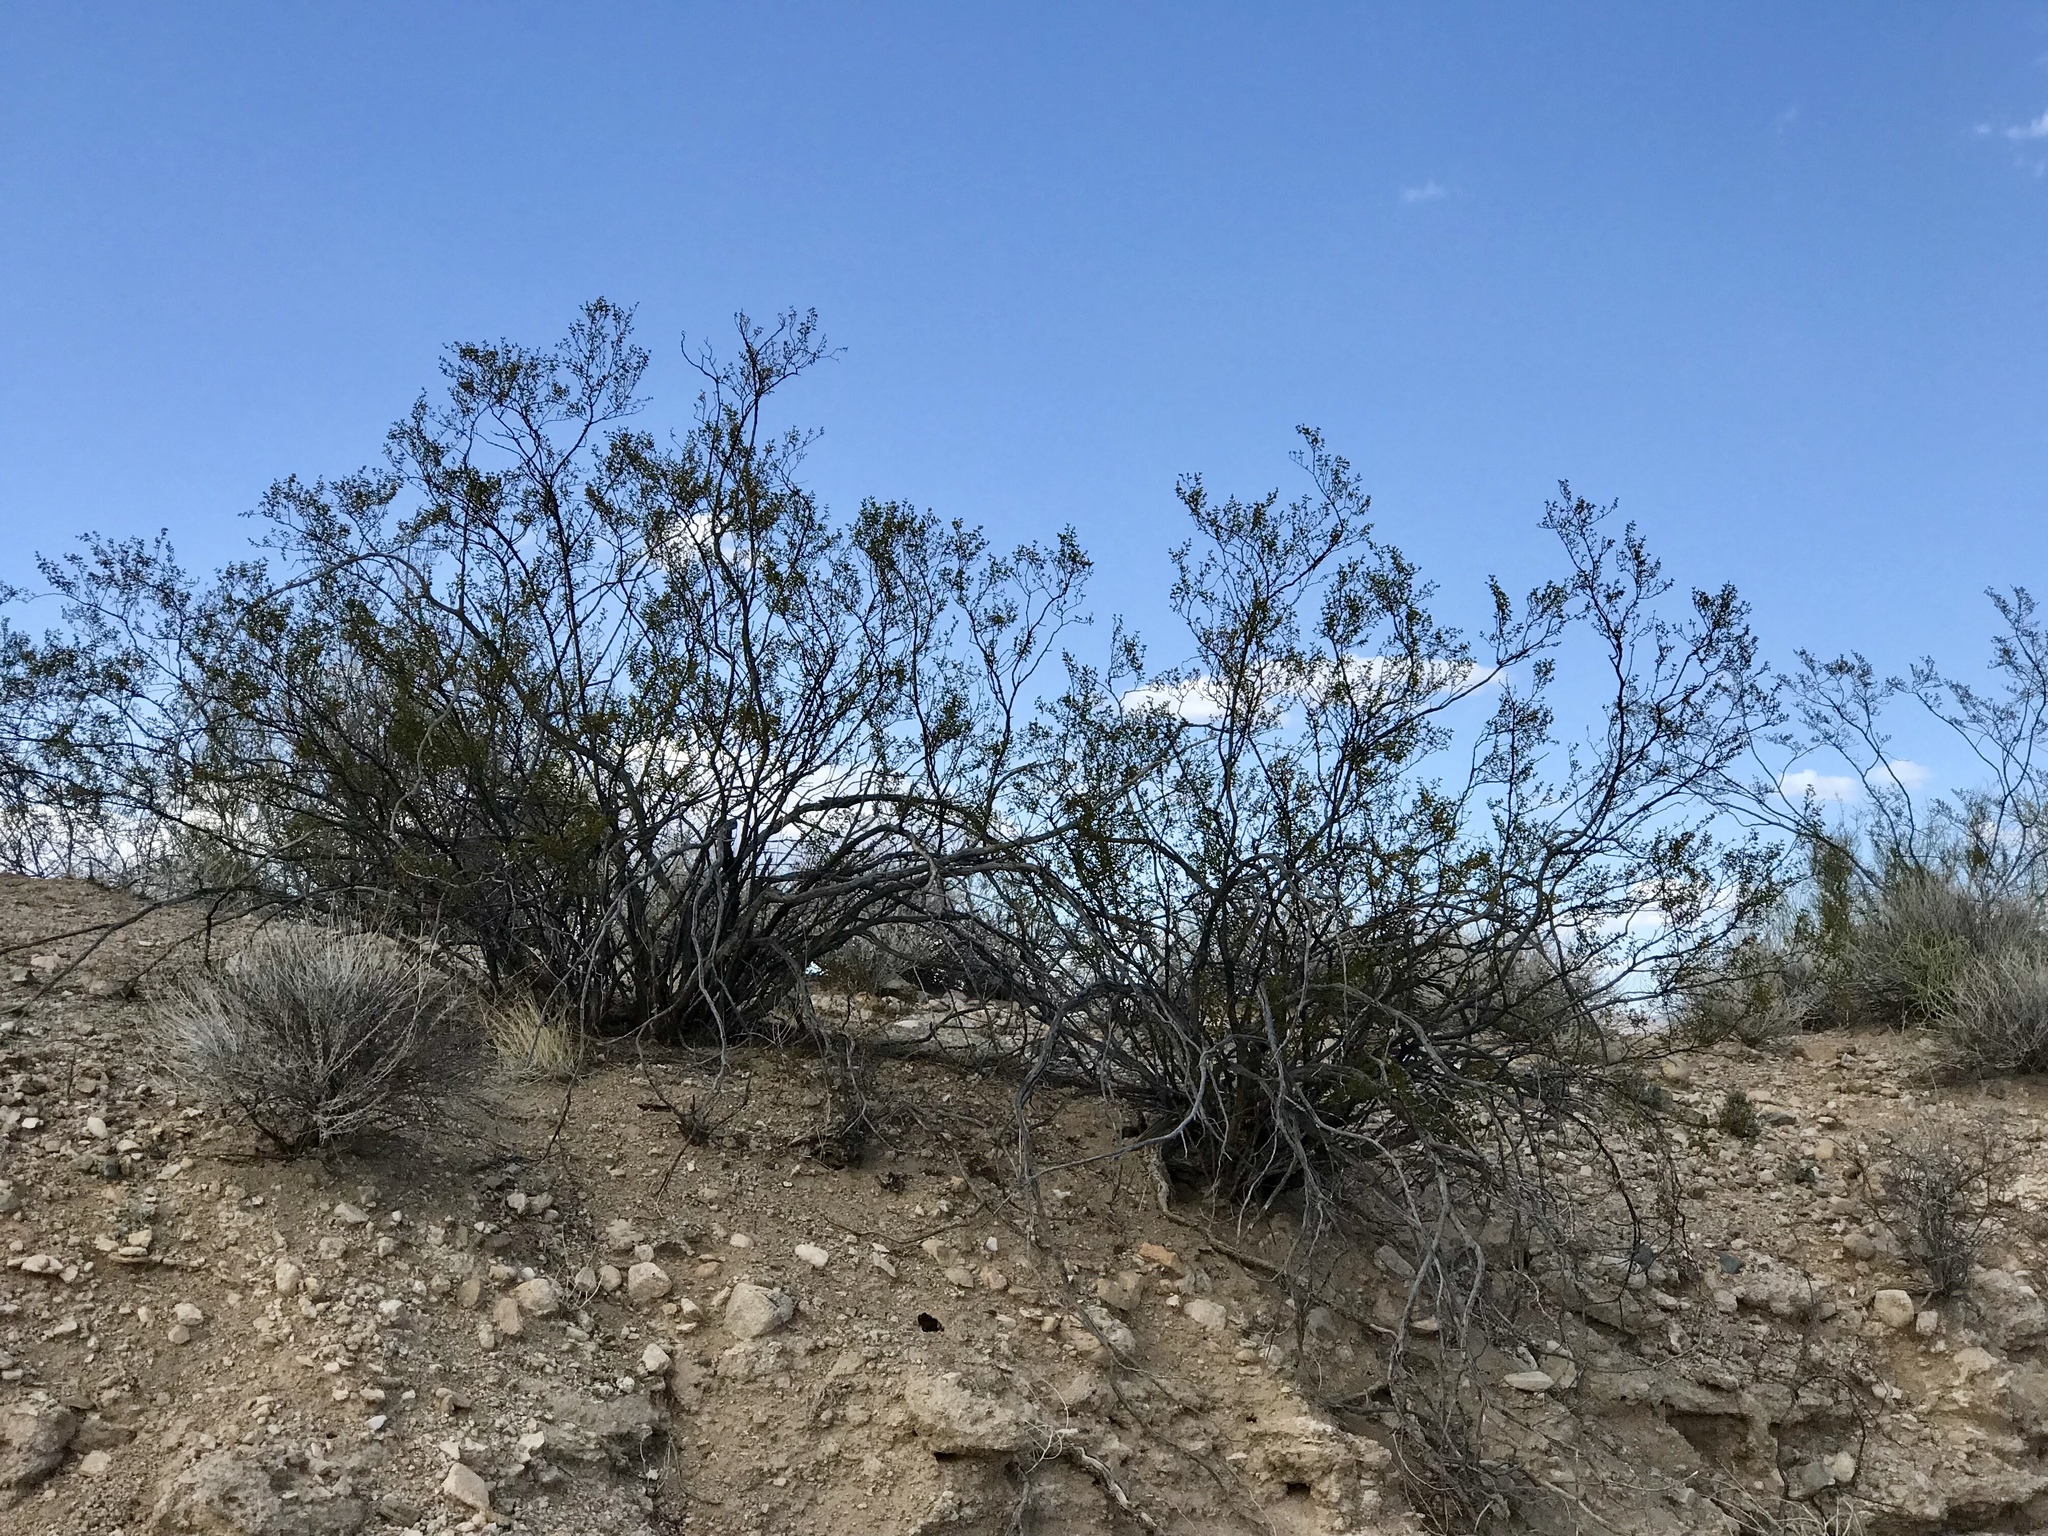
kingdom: Plantae
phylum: Tracheophyta
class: Magnoliopsida
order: Zygophyllales
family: Zygophyllaceae
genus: Larrea
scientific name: Larrea tridentata
